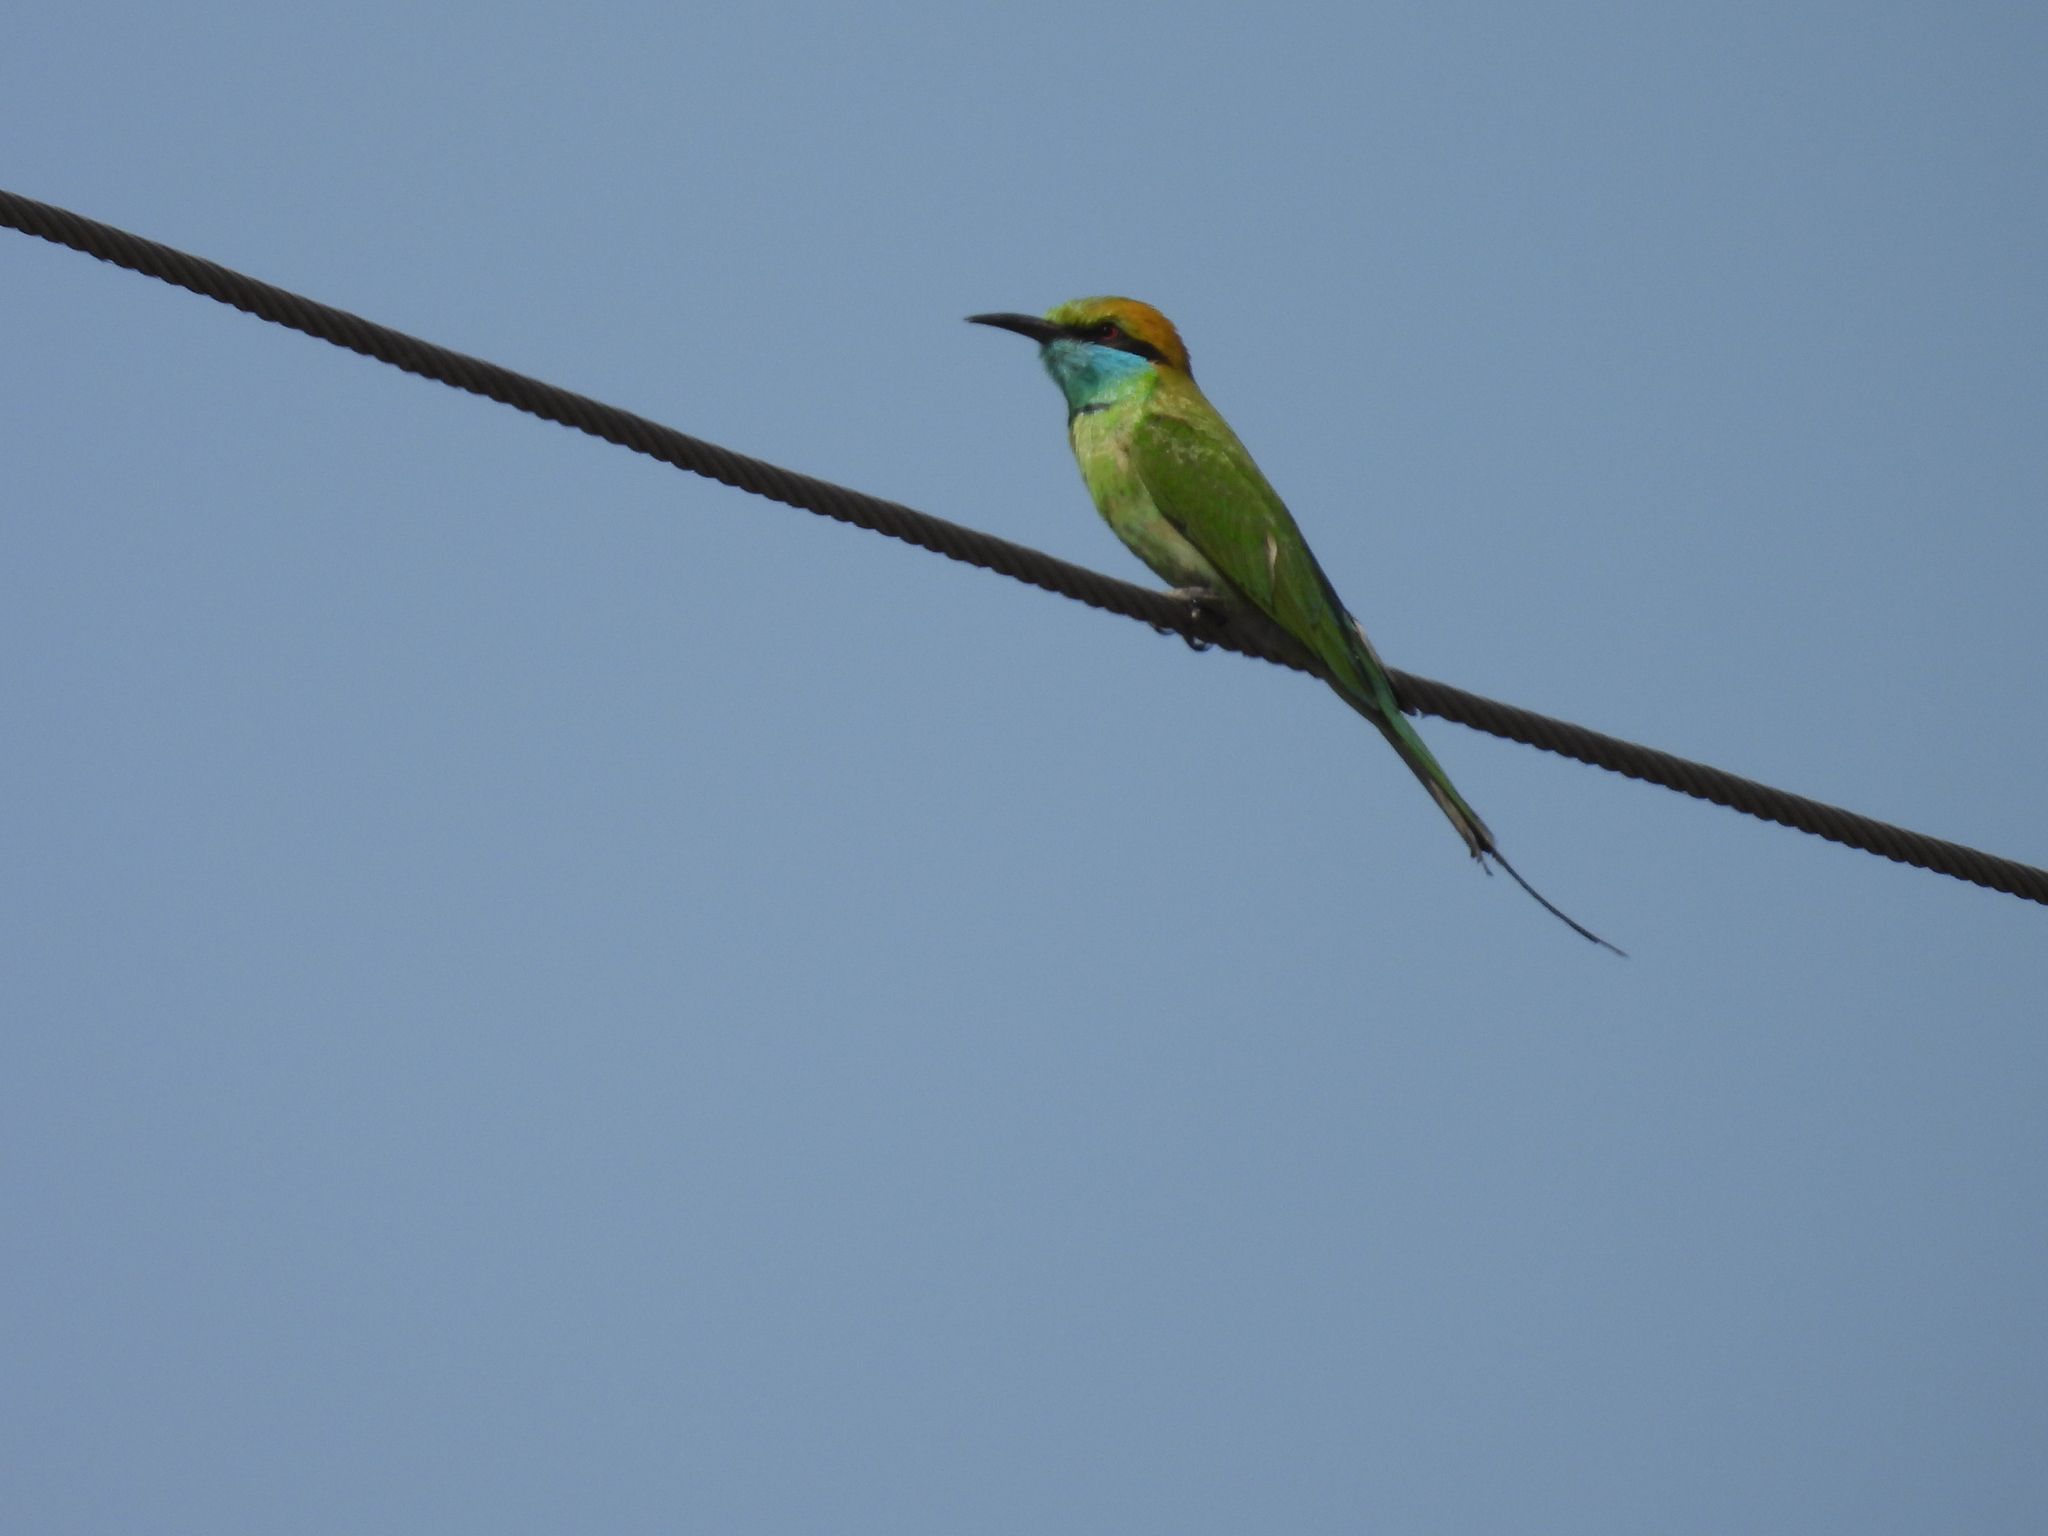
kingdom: Animalia
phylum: Chordata
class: Aves
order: Coraciiformes
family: Meropidae
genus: Merops
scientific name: Merops orientalis
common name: Green bee-eater
